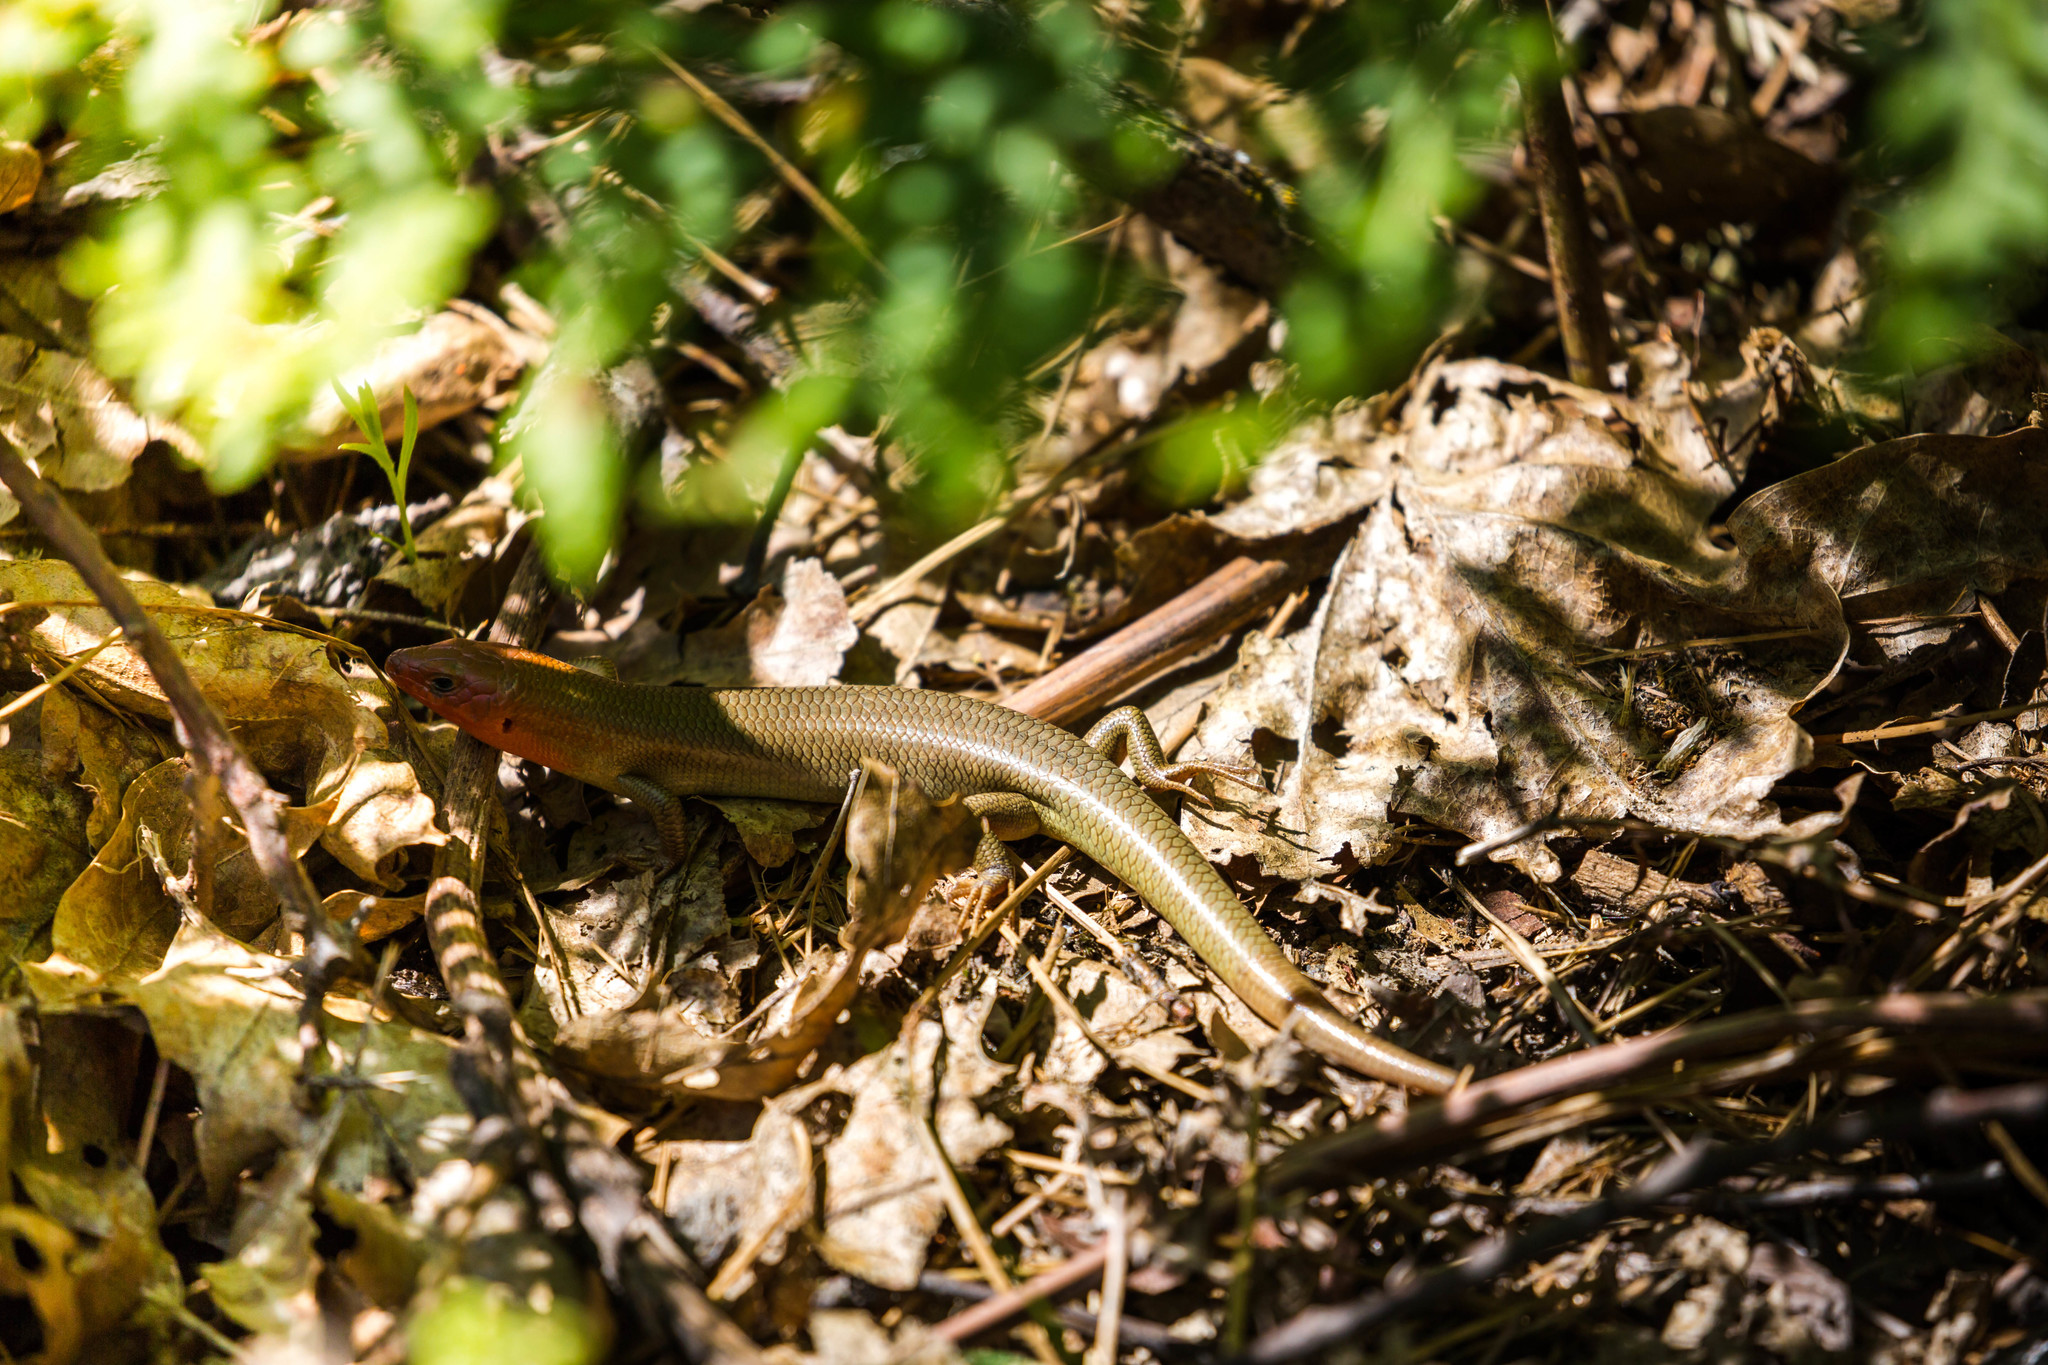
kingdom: Animalia
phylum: Chordata
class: Squamata
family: Scincidae
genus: Plestiodon
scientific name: Plestiodon gilberti
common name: Gilbert's skink
